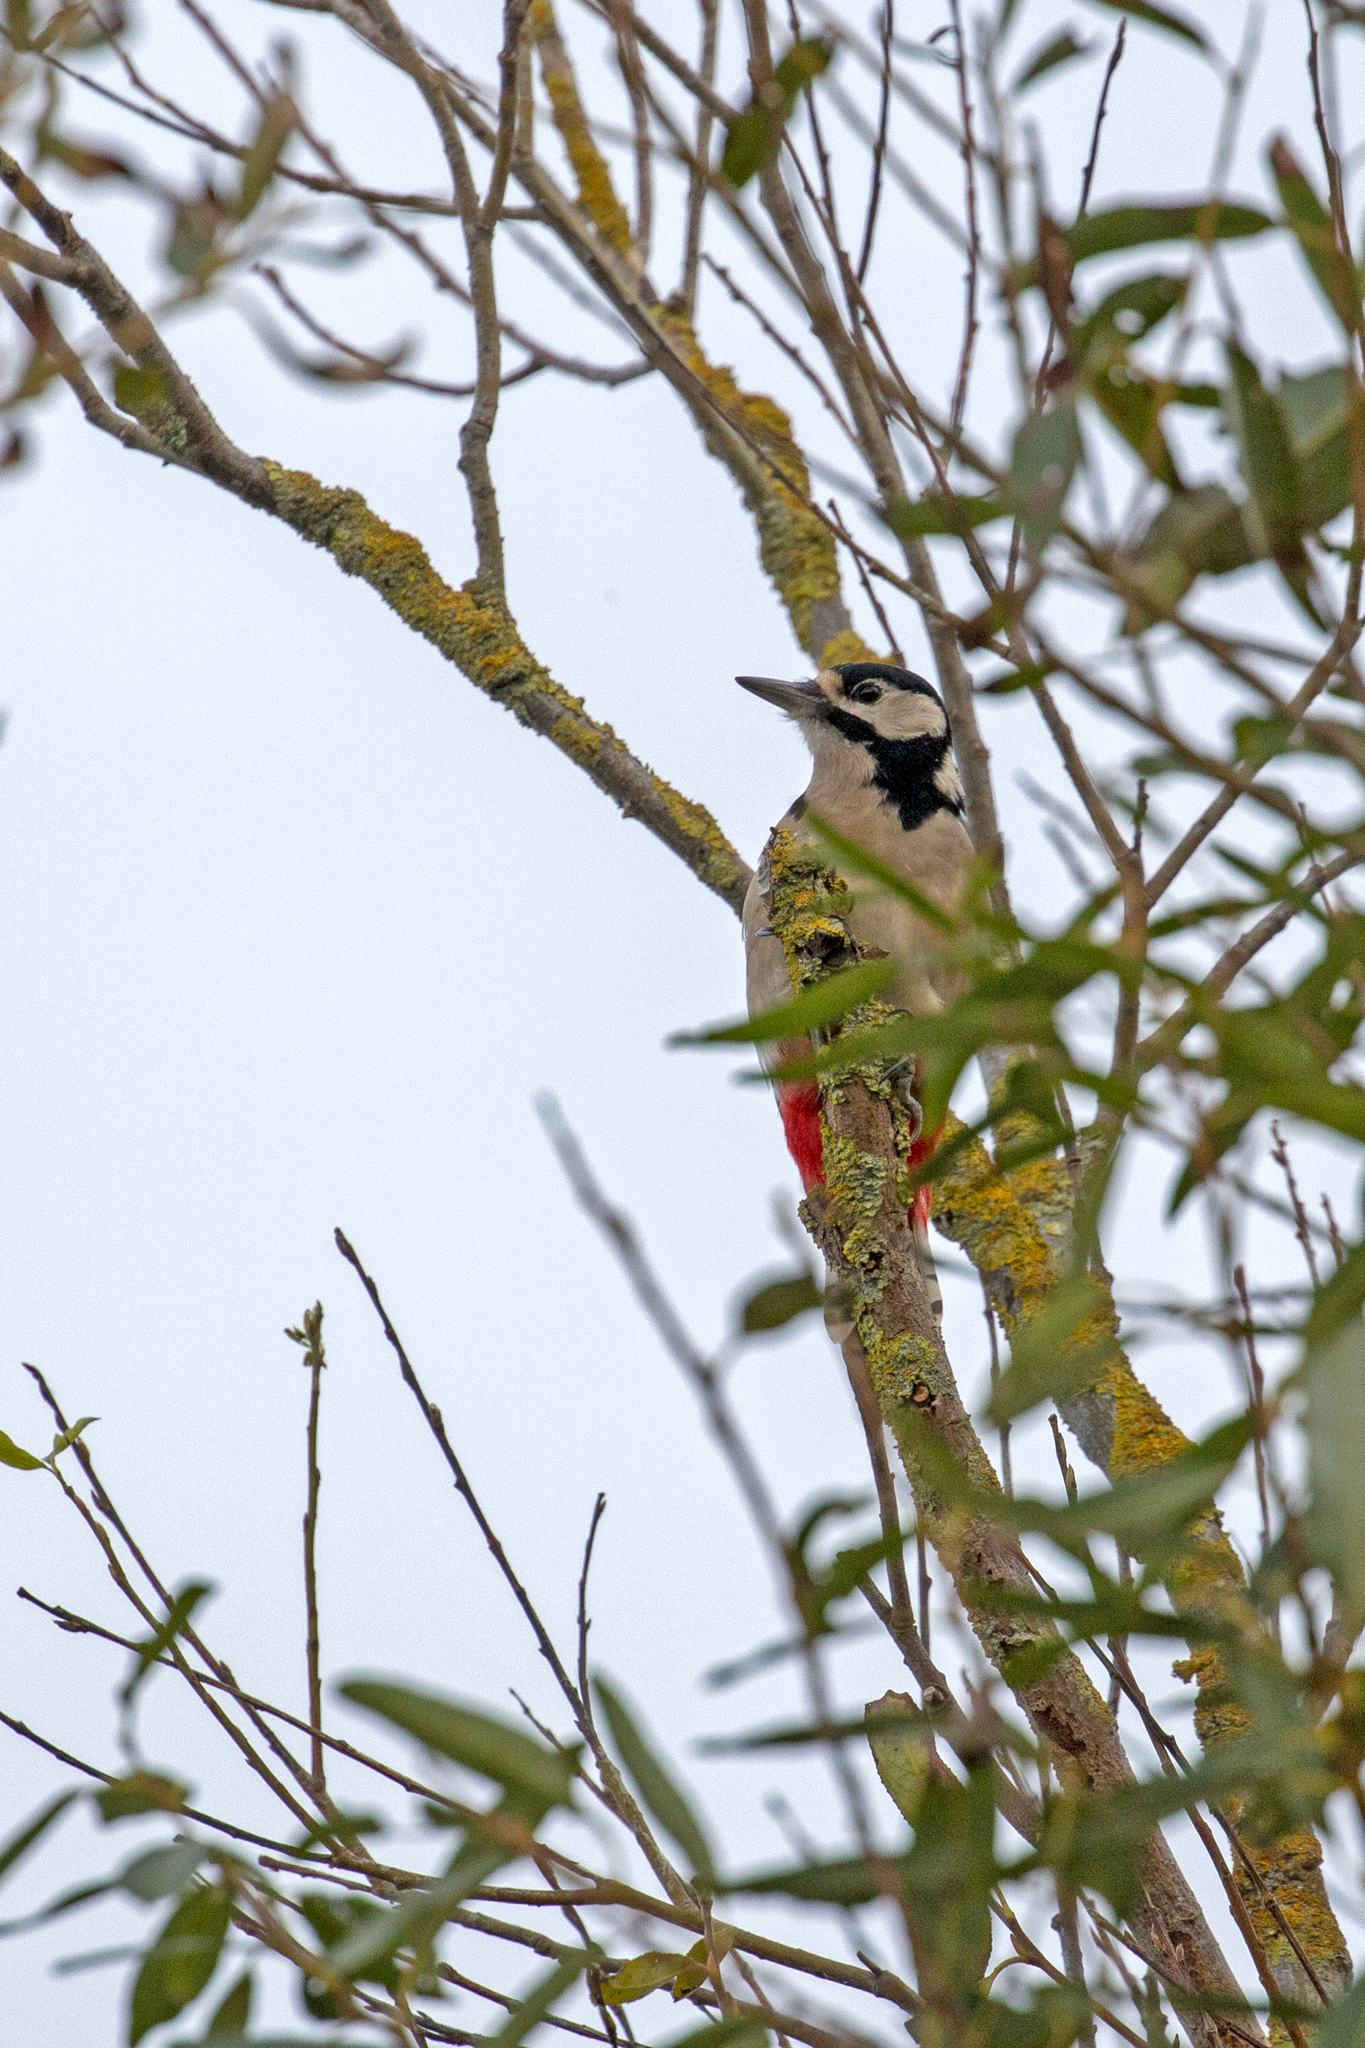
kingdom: Animalia
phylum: Chordata
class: Aves
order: Piciformes
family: Picidae
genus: Dendrocopos
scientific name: Dendrocopos major
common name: Great spotted woodpecker
